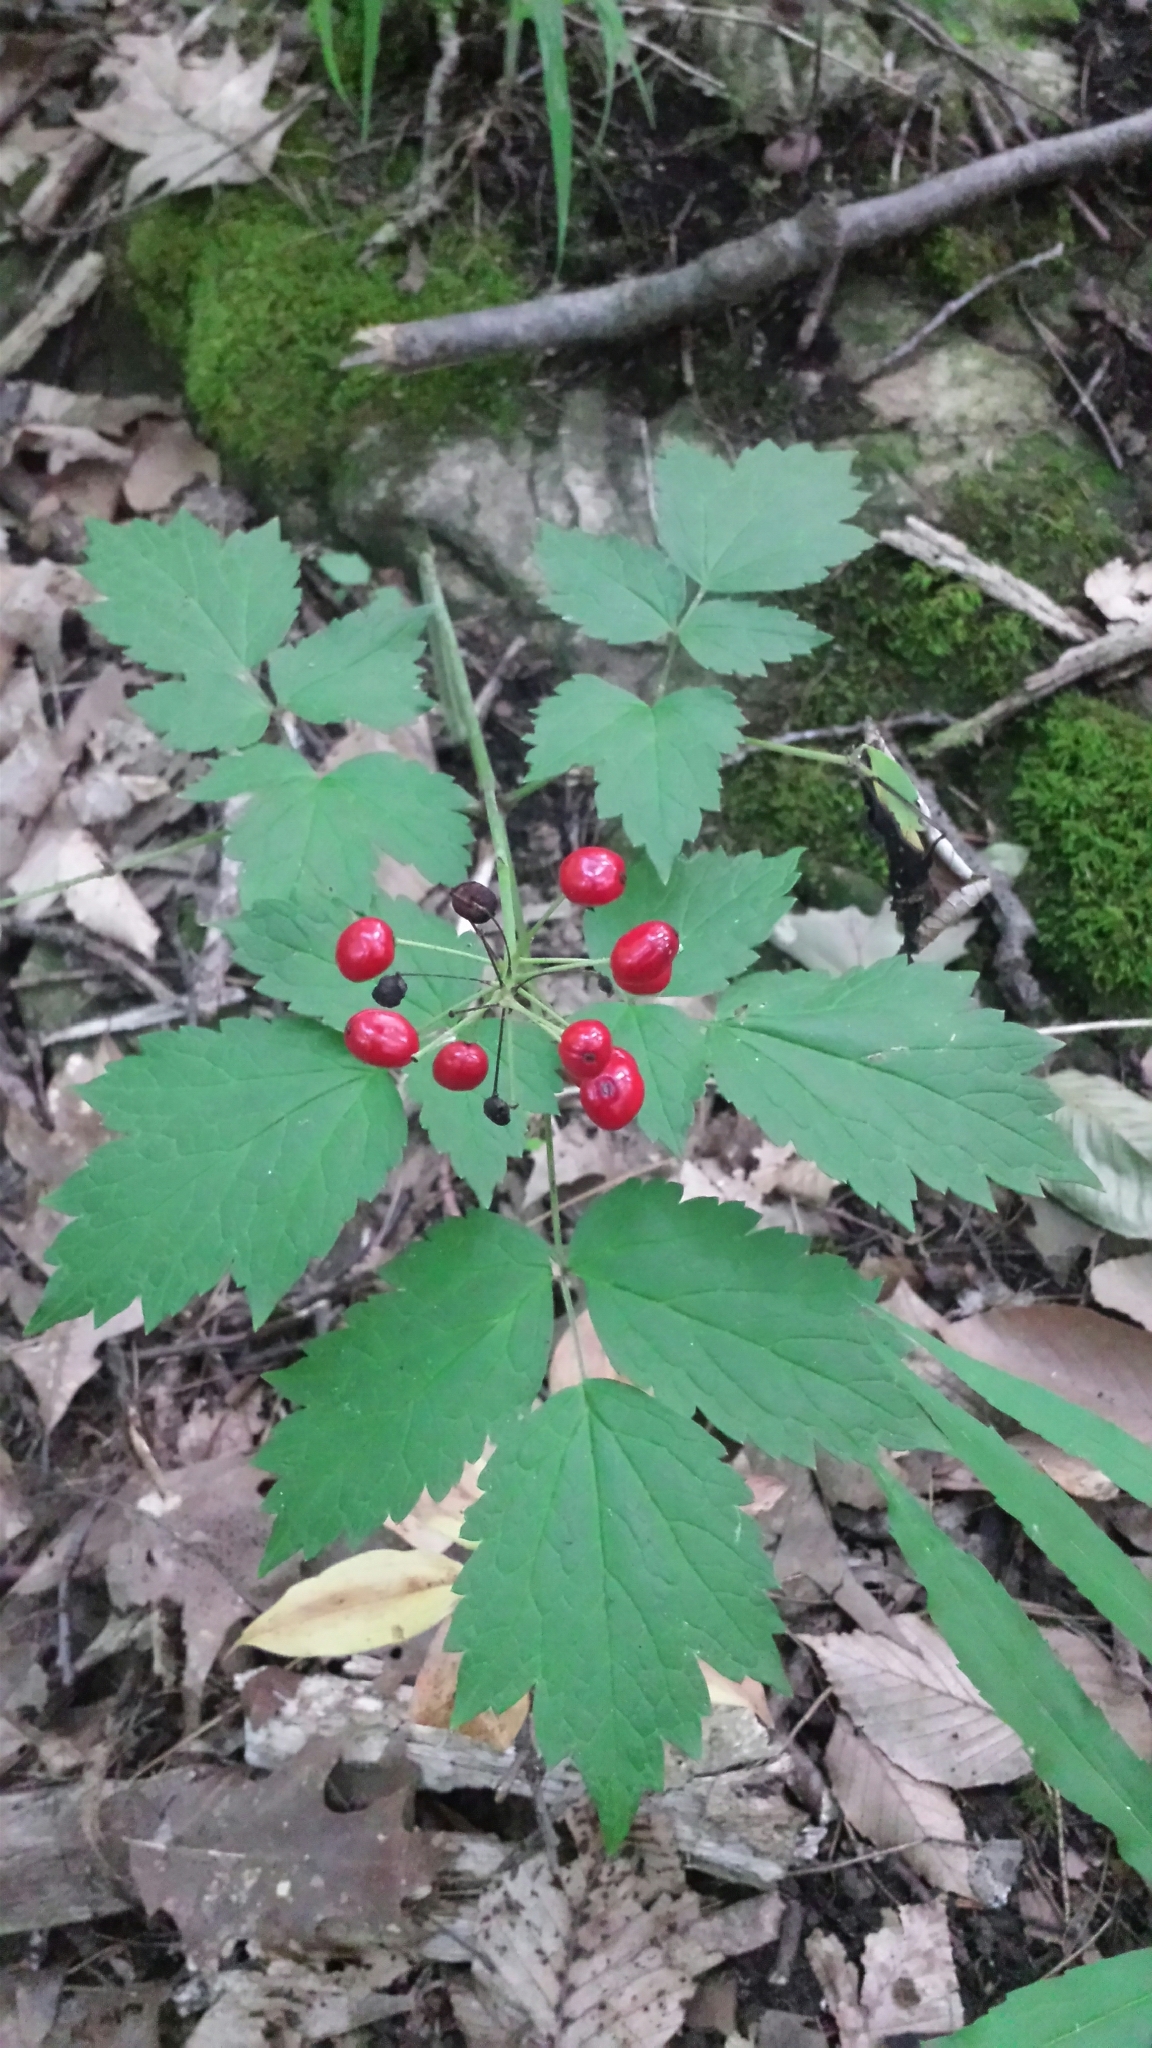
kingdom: Plantae
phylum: Tracheophyta
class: Magnoliopsida
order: Ranunculales
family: Ranunculaceae
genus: Actaea
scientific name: Actaea rubra
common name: Red baneberry
